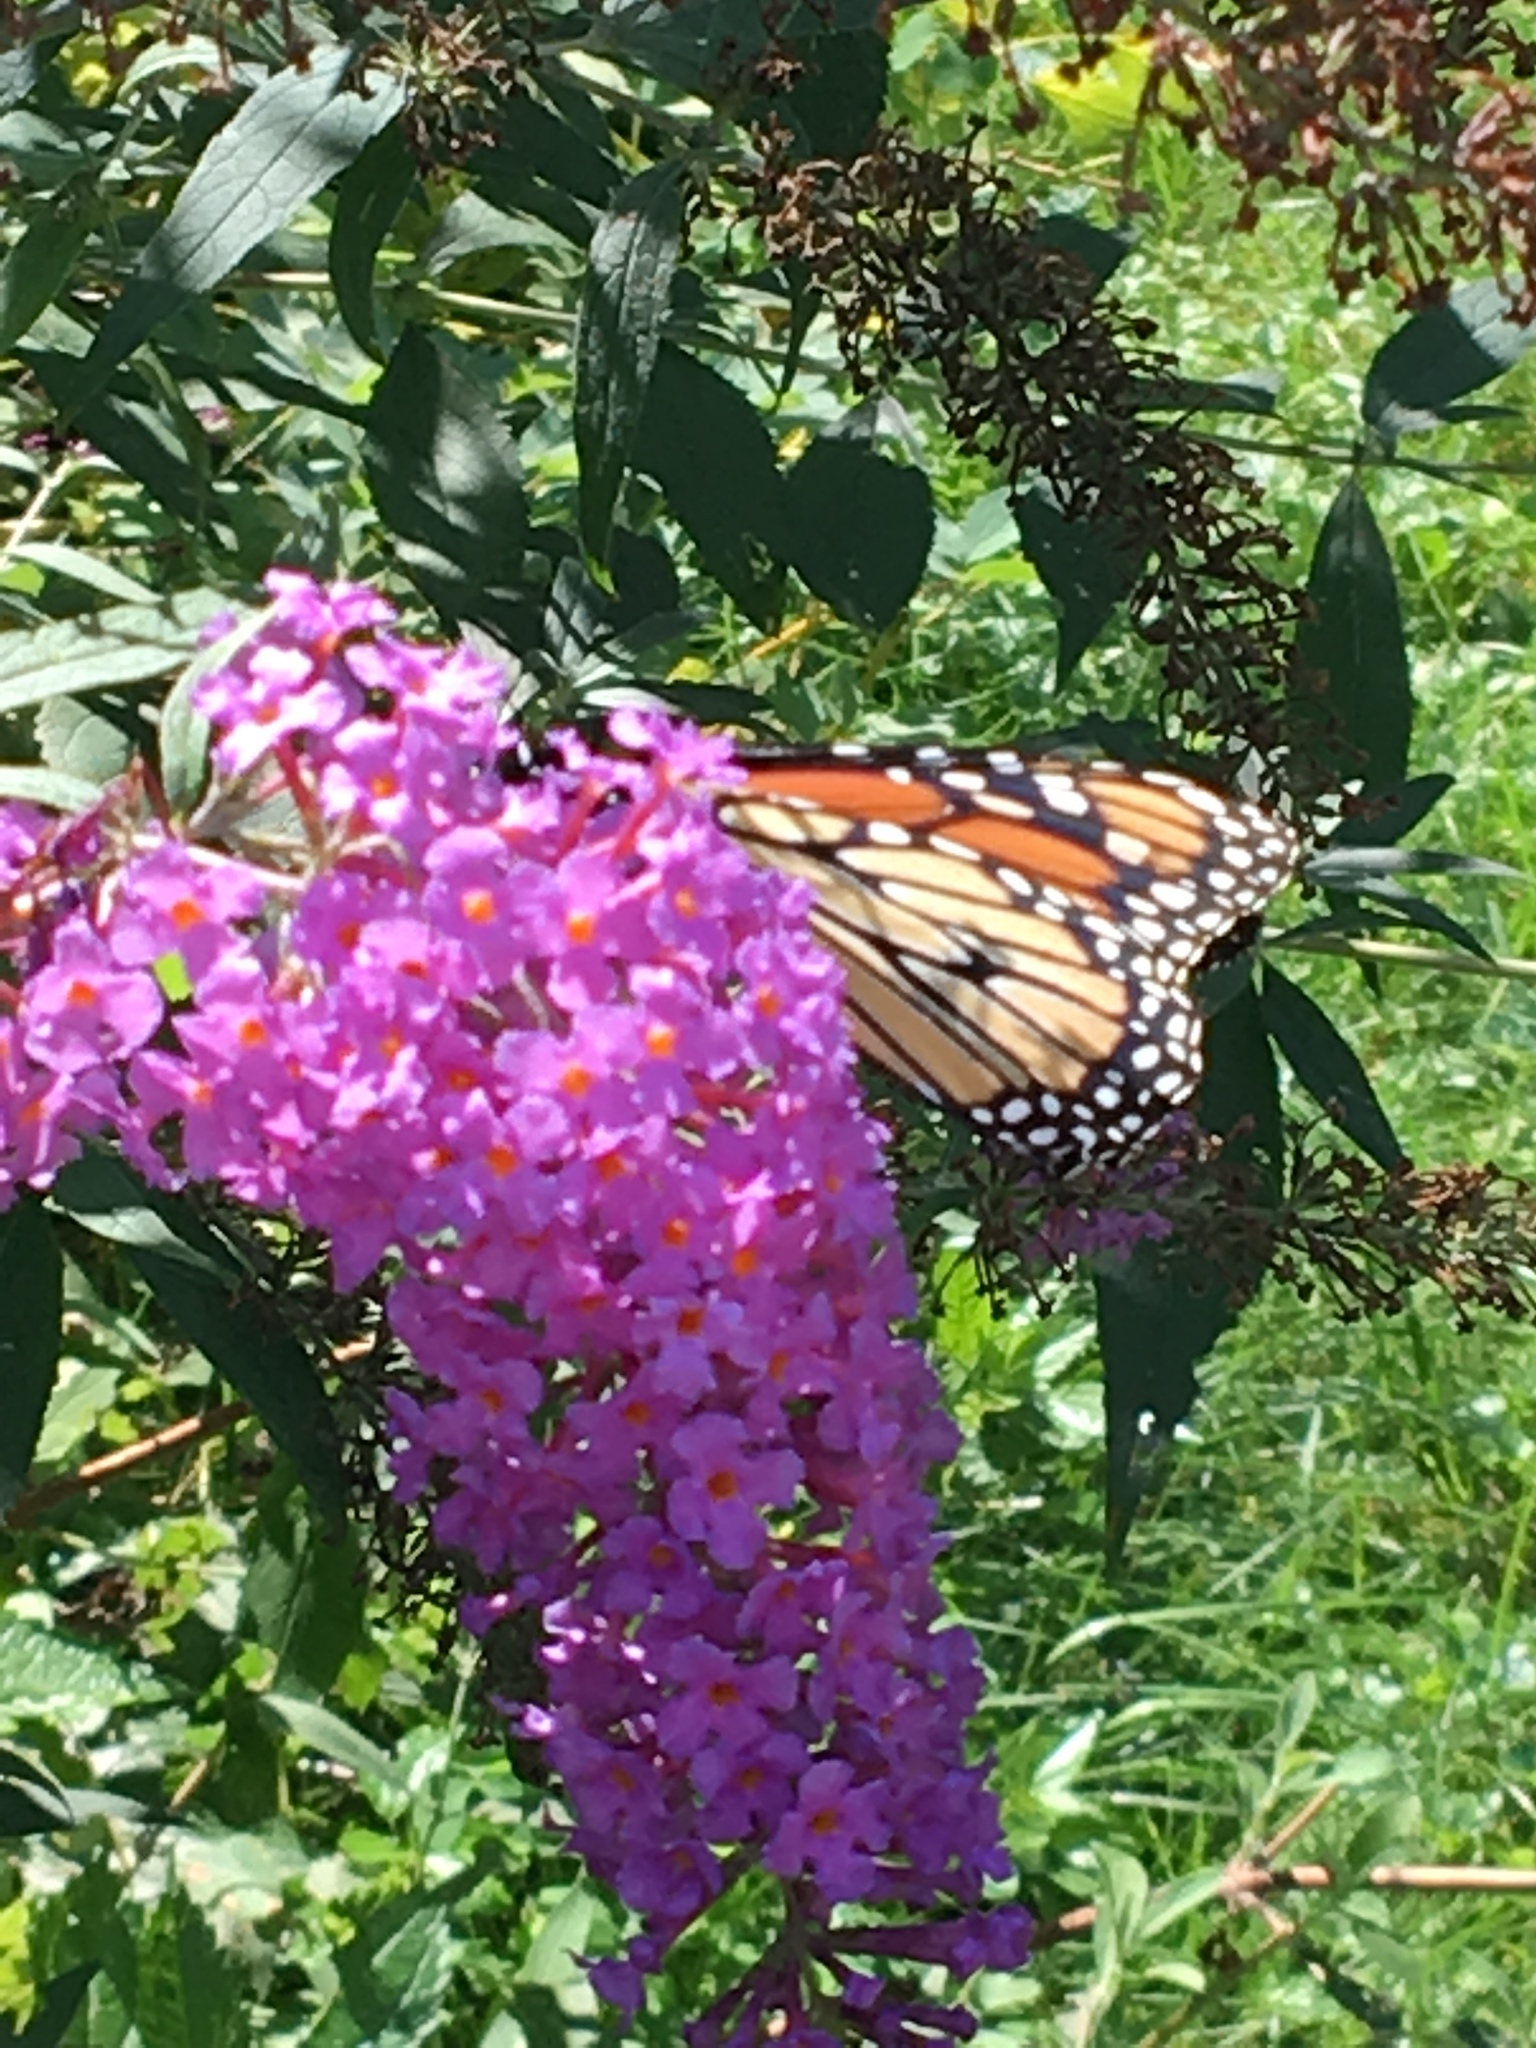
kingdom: Animalia
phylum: Arthropoda
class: Insecta
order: Lepidoptera
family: Nymphalidae
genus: Danaus
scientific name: Danaus plexippus
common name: Monarch
